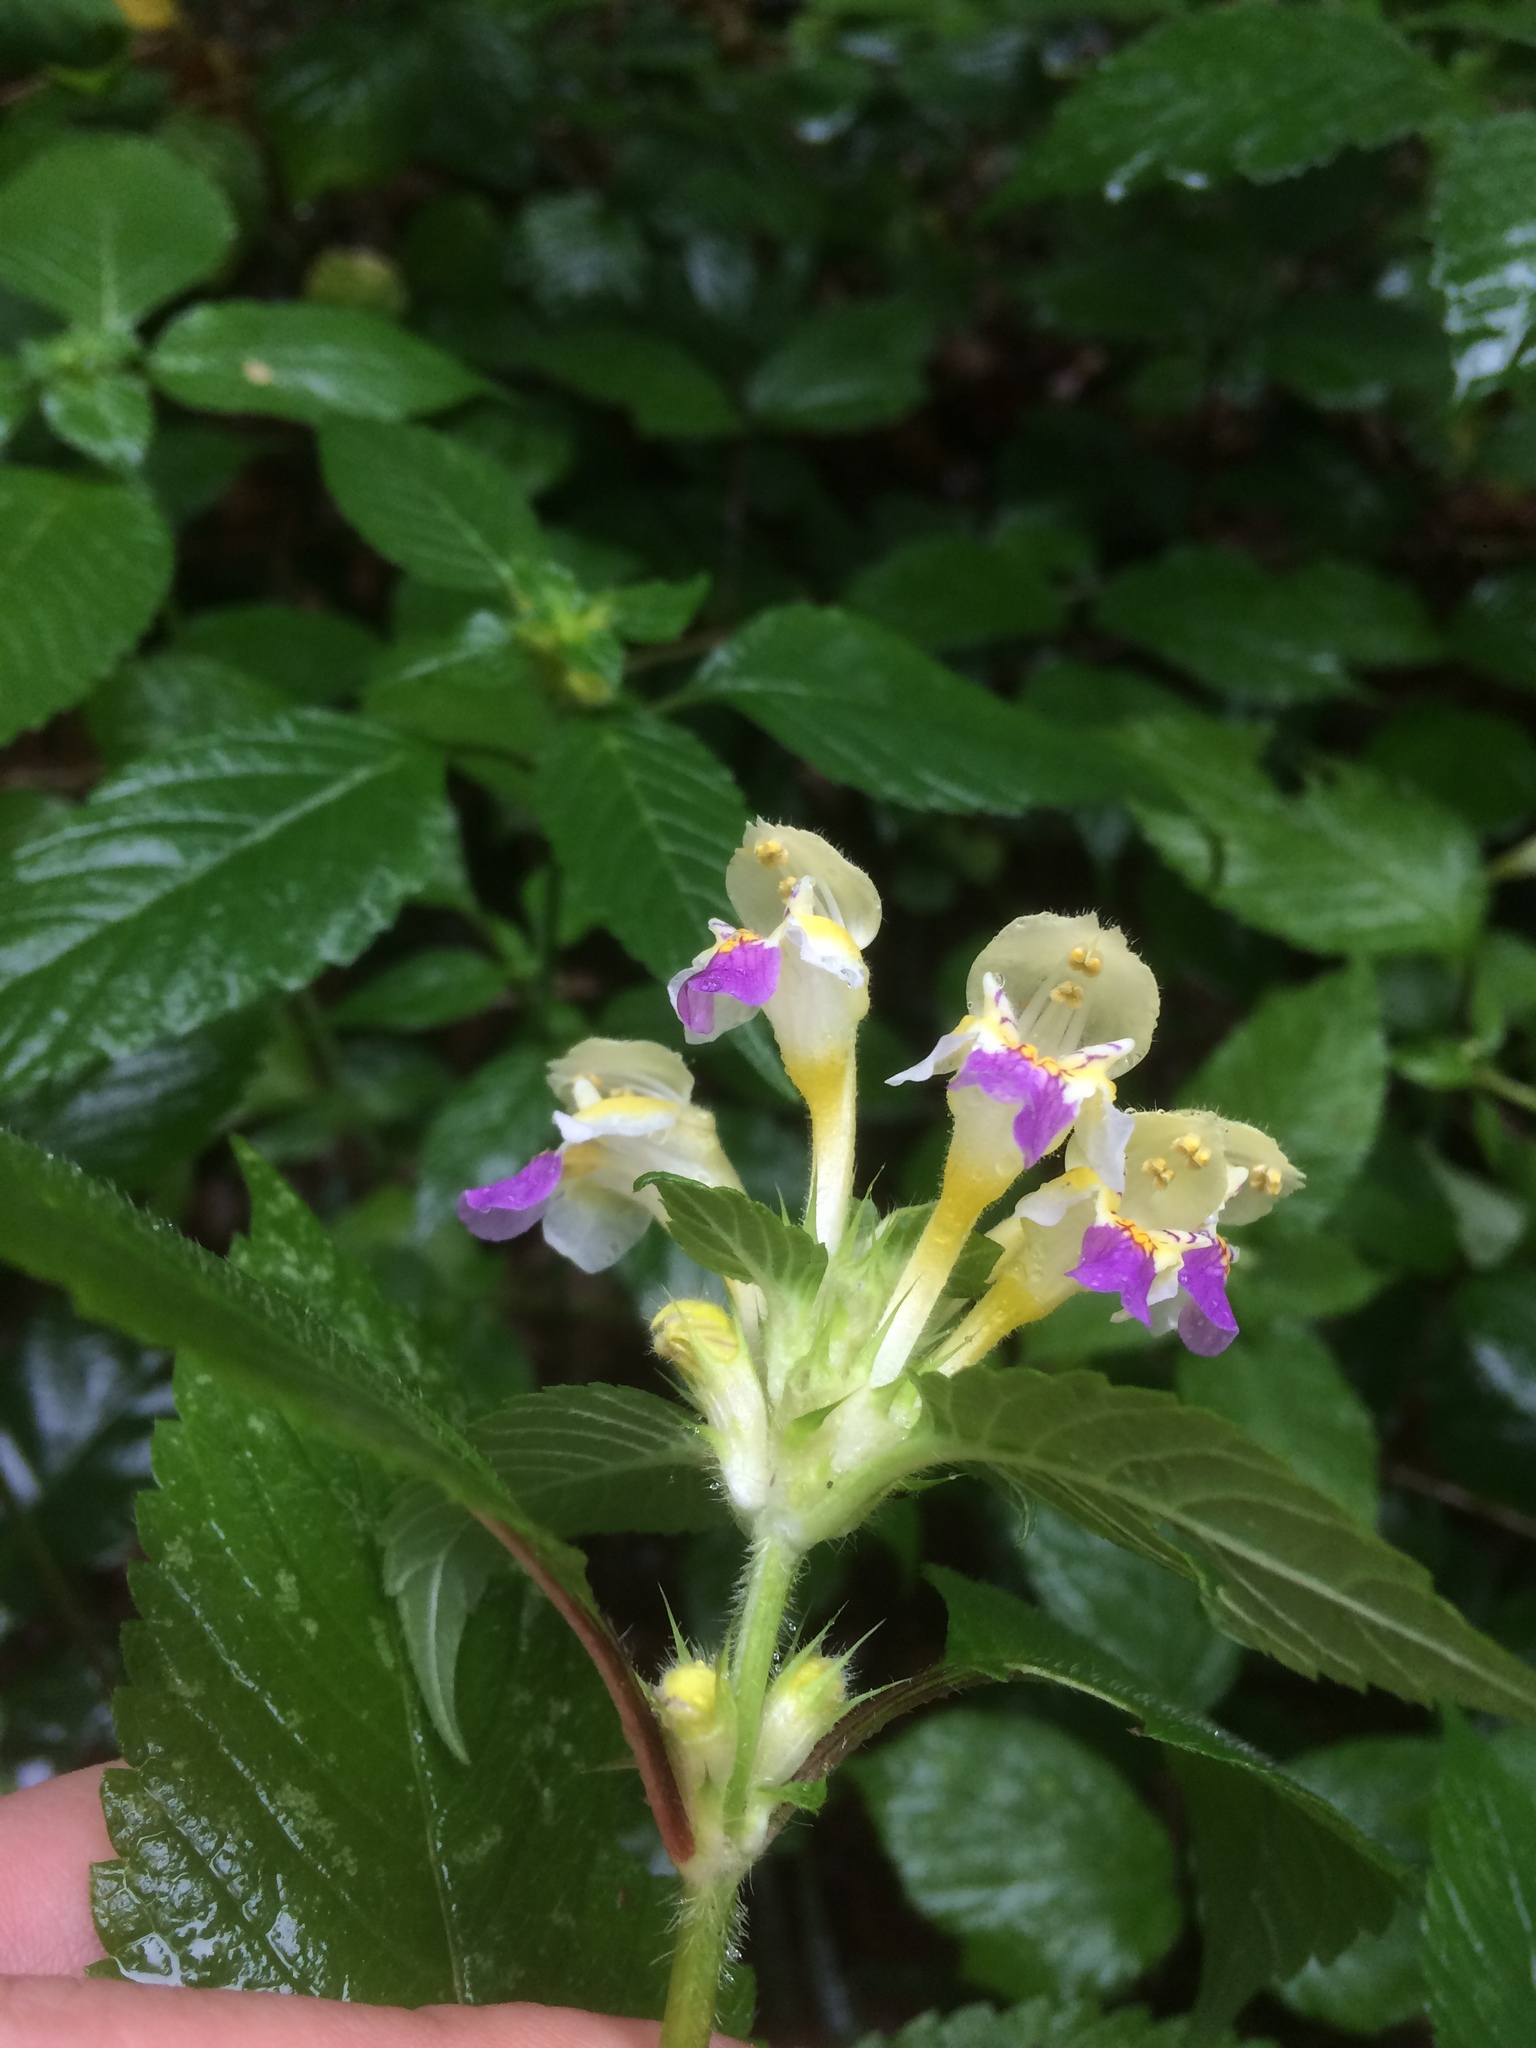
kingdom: Plantae
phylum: Tracheophyta
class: Magnoliopsida
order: Lamiales
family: Lamiaceae
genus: Galeopsis
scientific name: Galeopsis speciosa
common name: Large-flowered hemp-nettle
